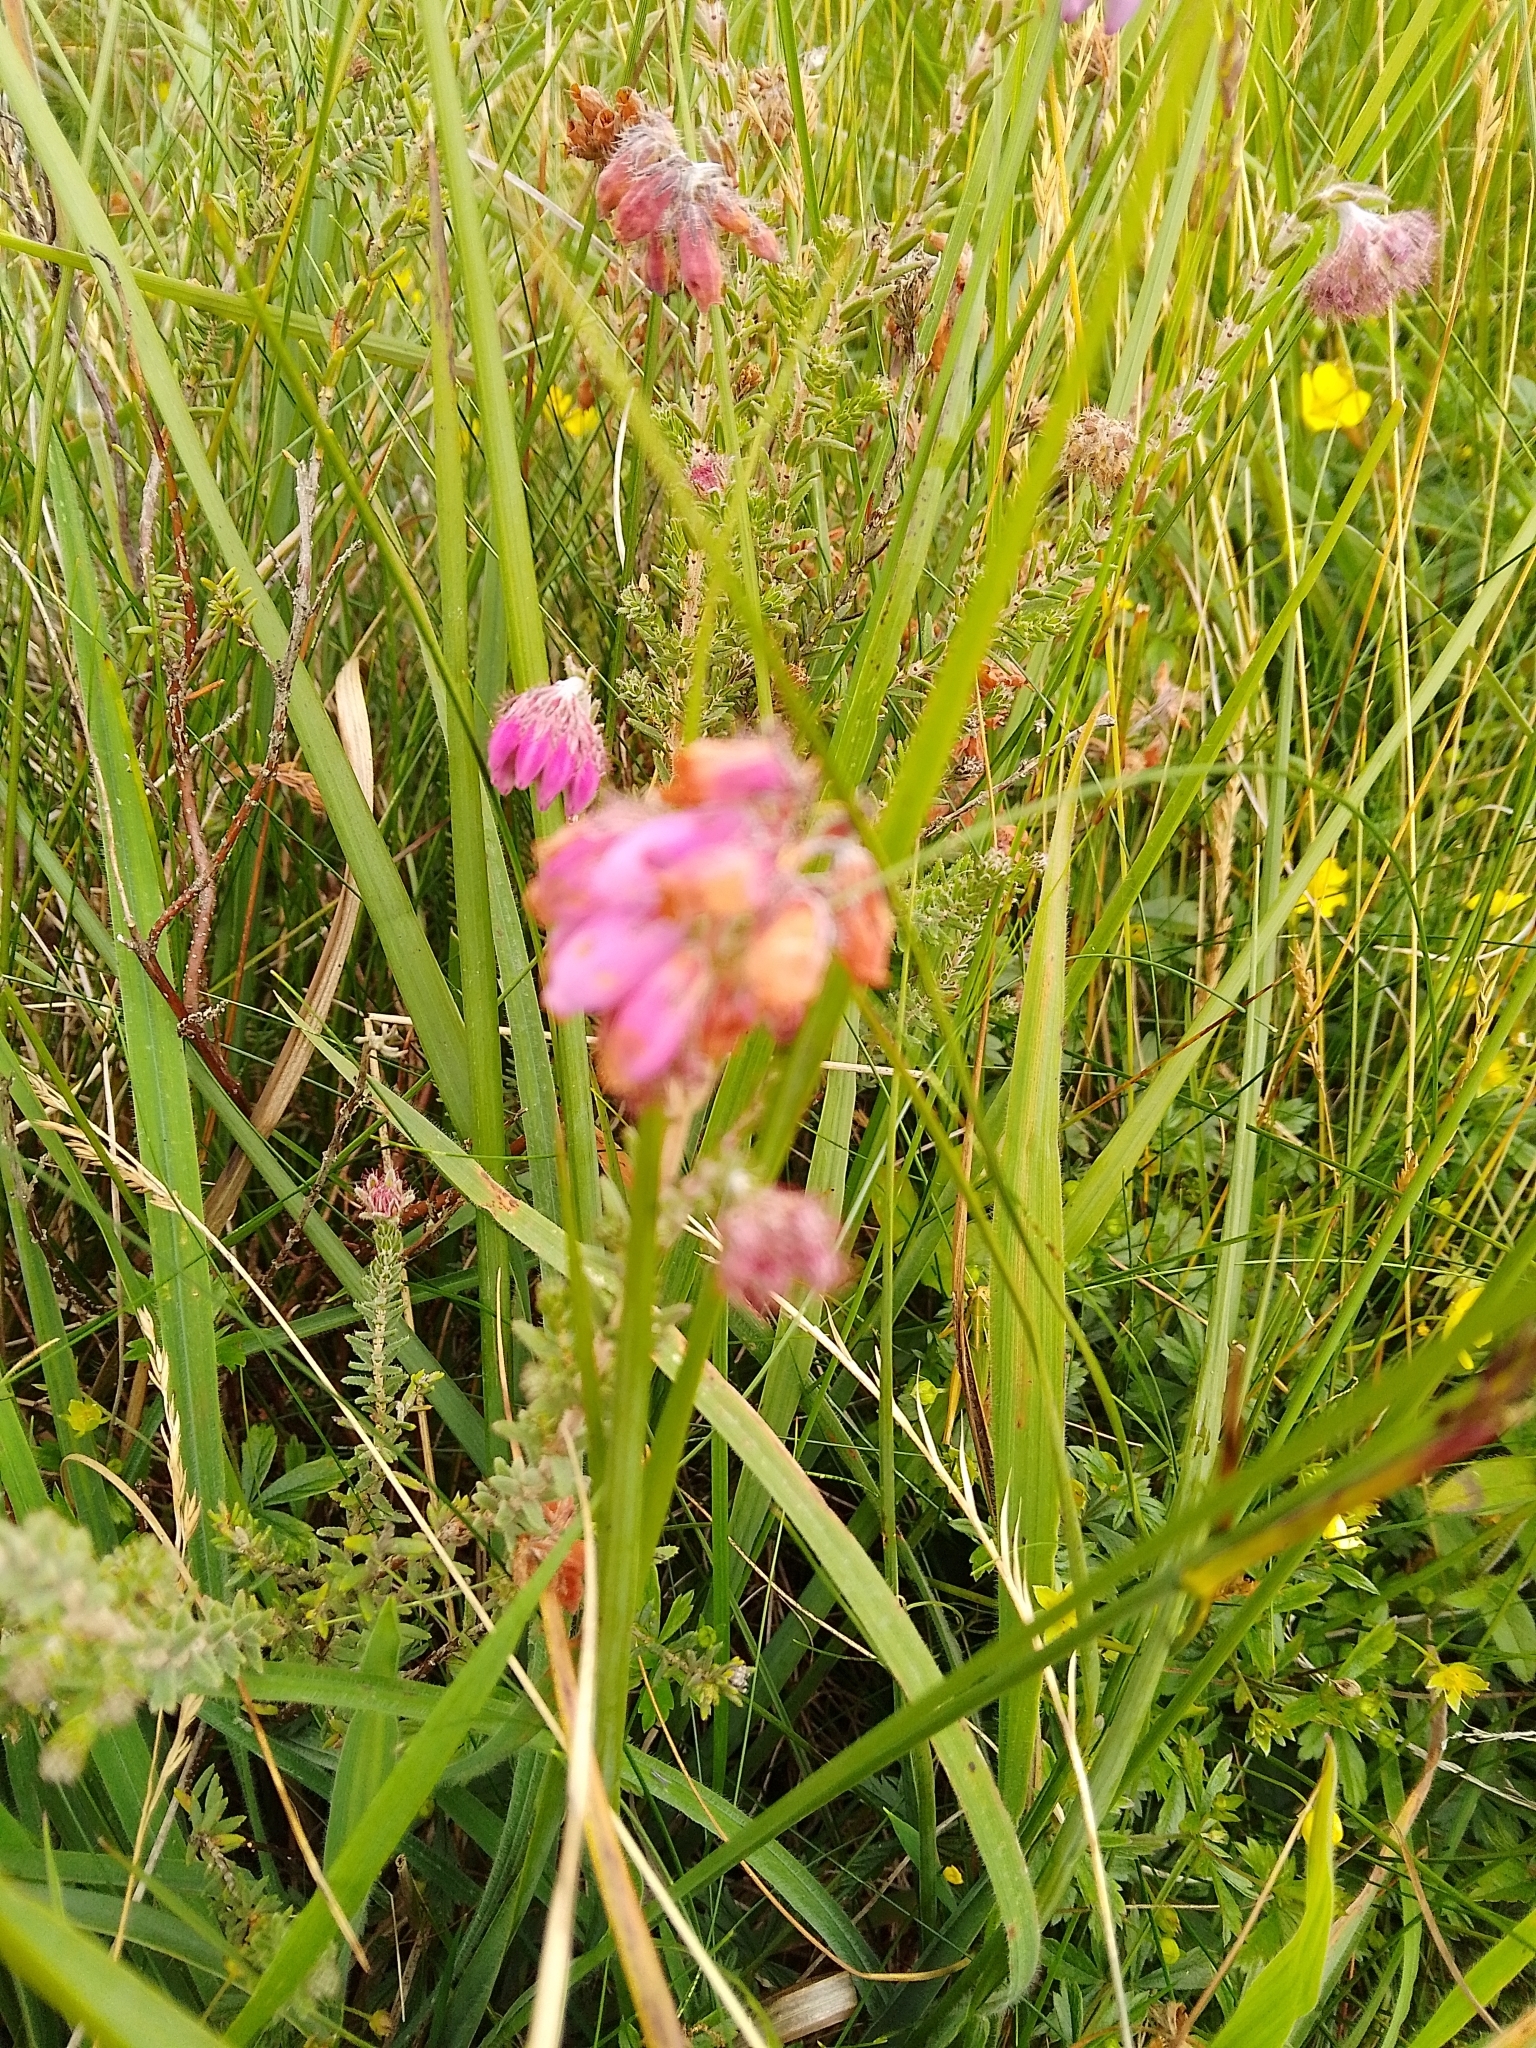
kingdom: Plantae
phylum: Tracheophyta
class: Magnoliopsida
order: Ericales
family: Ericaceae
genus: Erica
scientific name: Erica tetralix
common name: Cross-leaved heath
